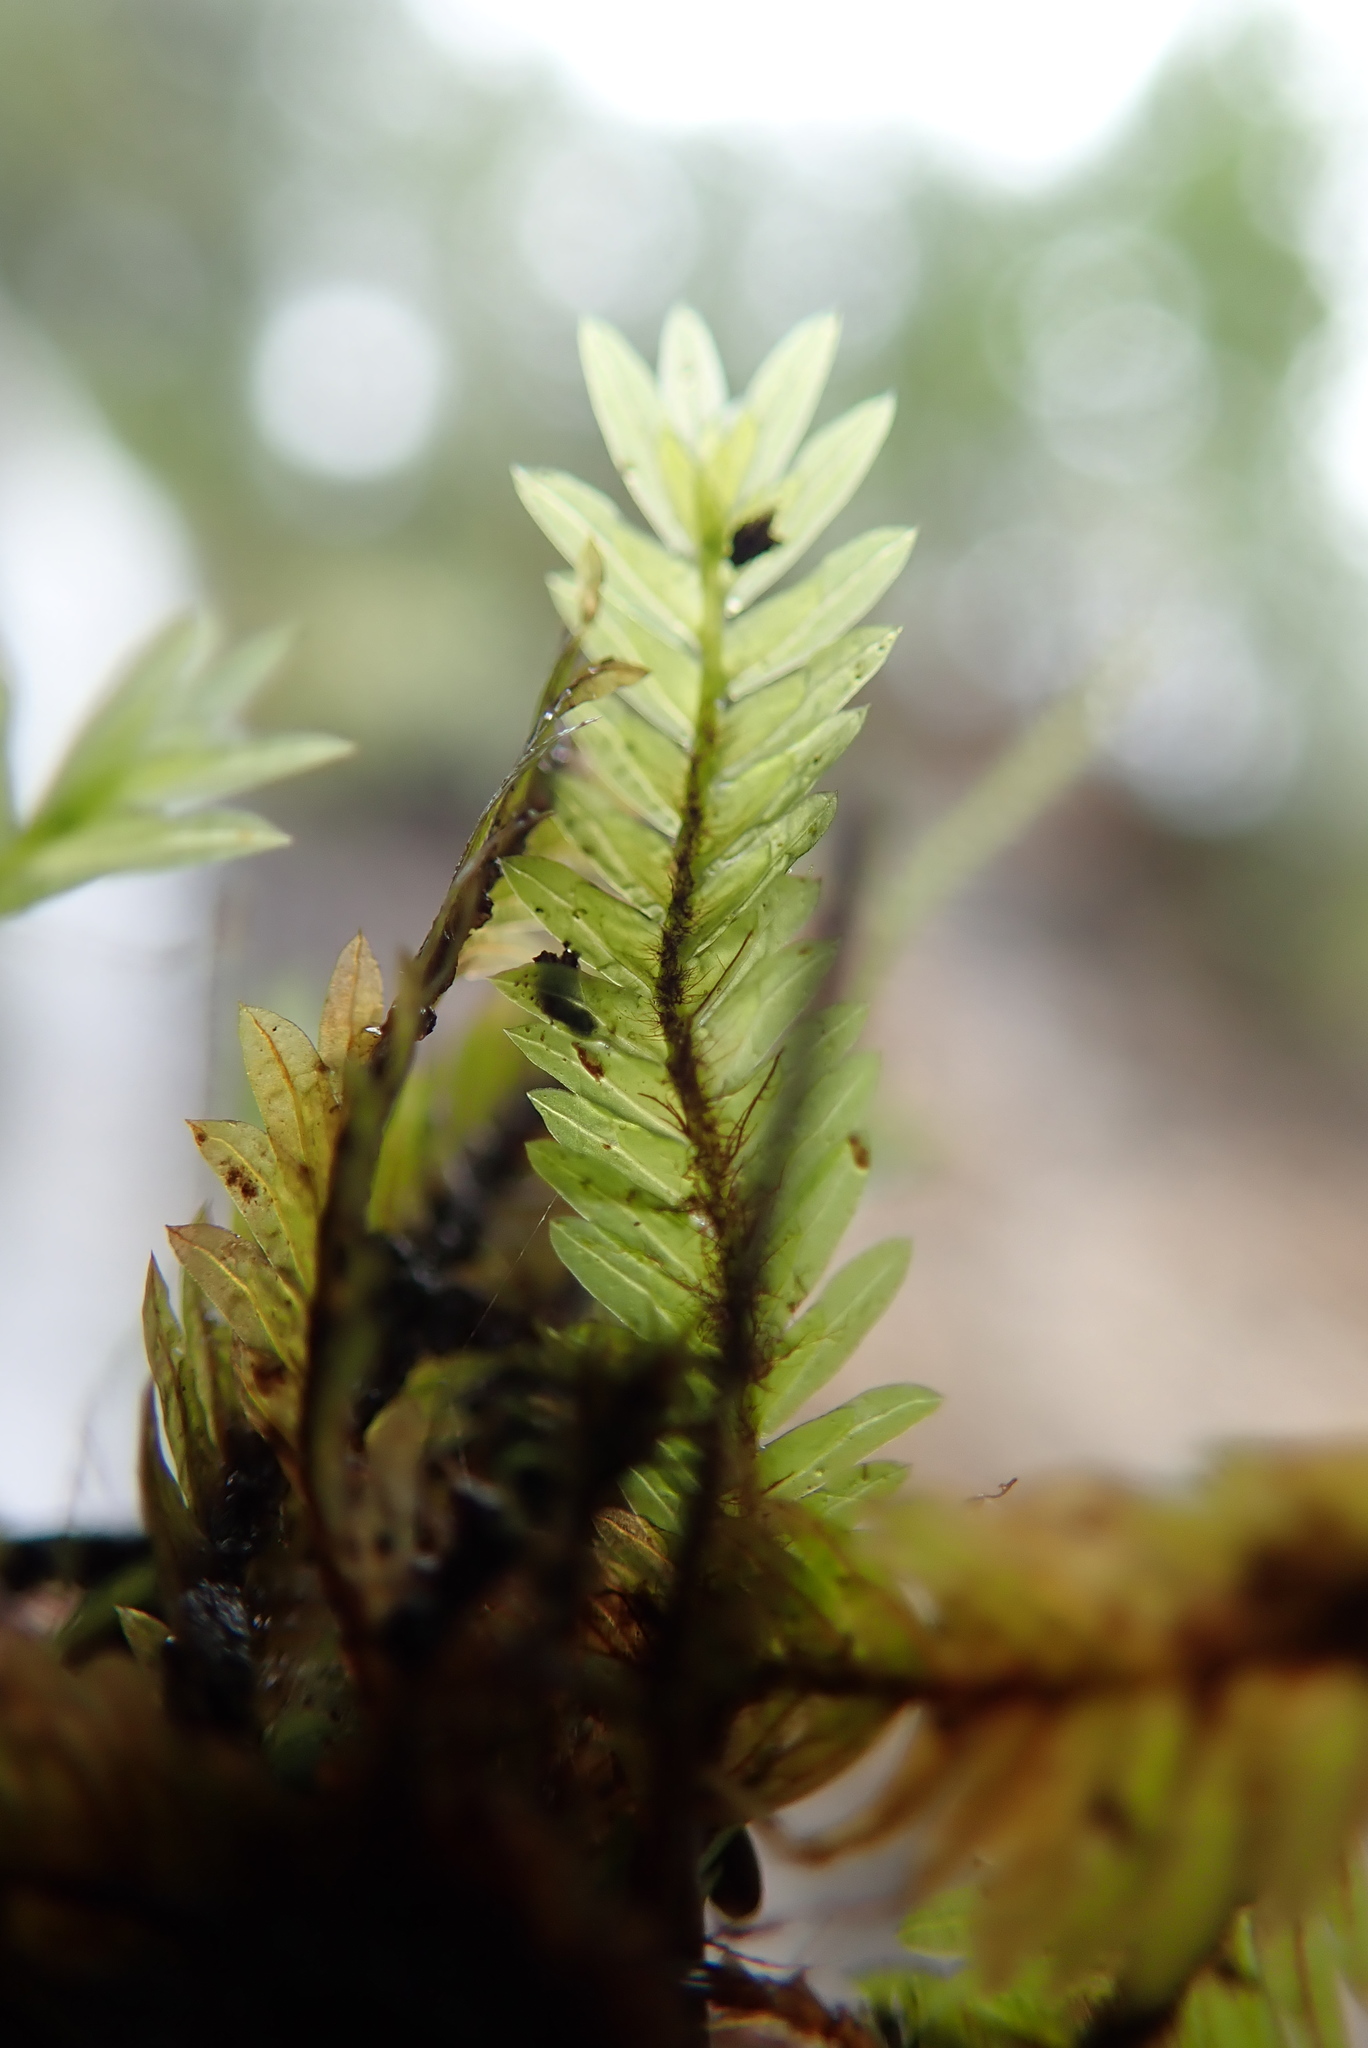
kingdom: Plantae
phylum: Bryophyta
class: Bryopsida
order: Dicranales
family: Fissidentaceae
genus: Fissidens
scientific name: Fissidens adianthoides
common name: Maidenhair pocket moss
